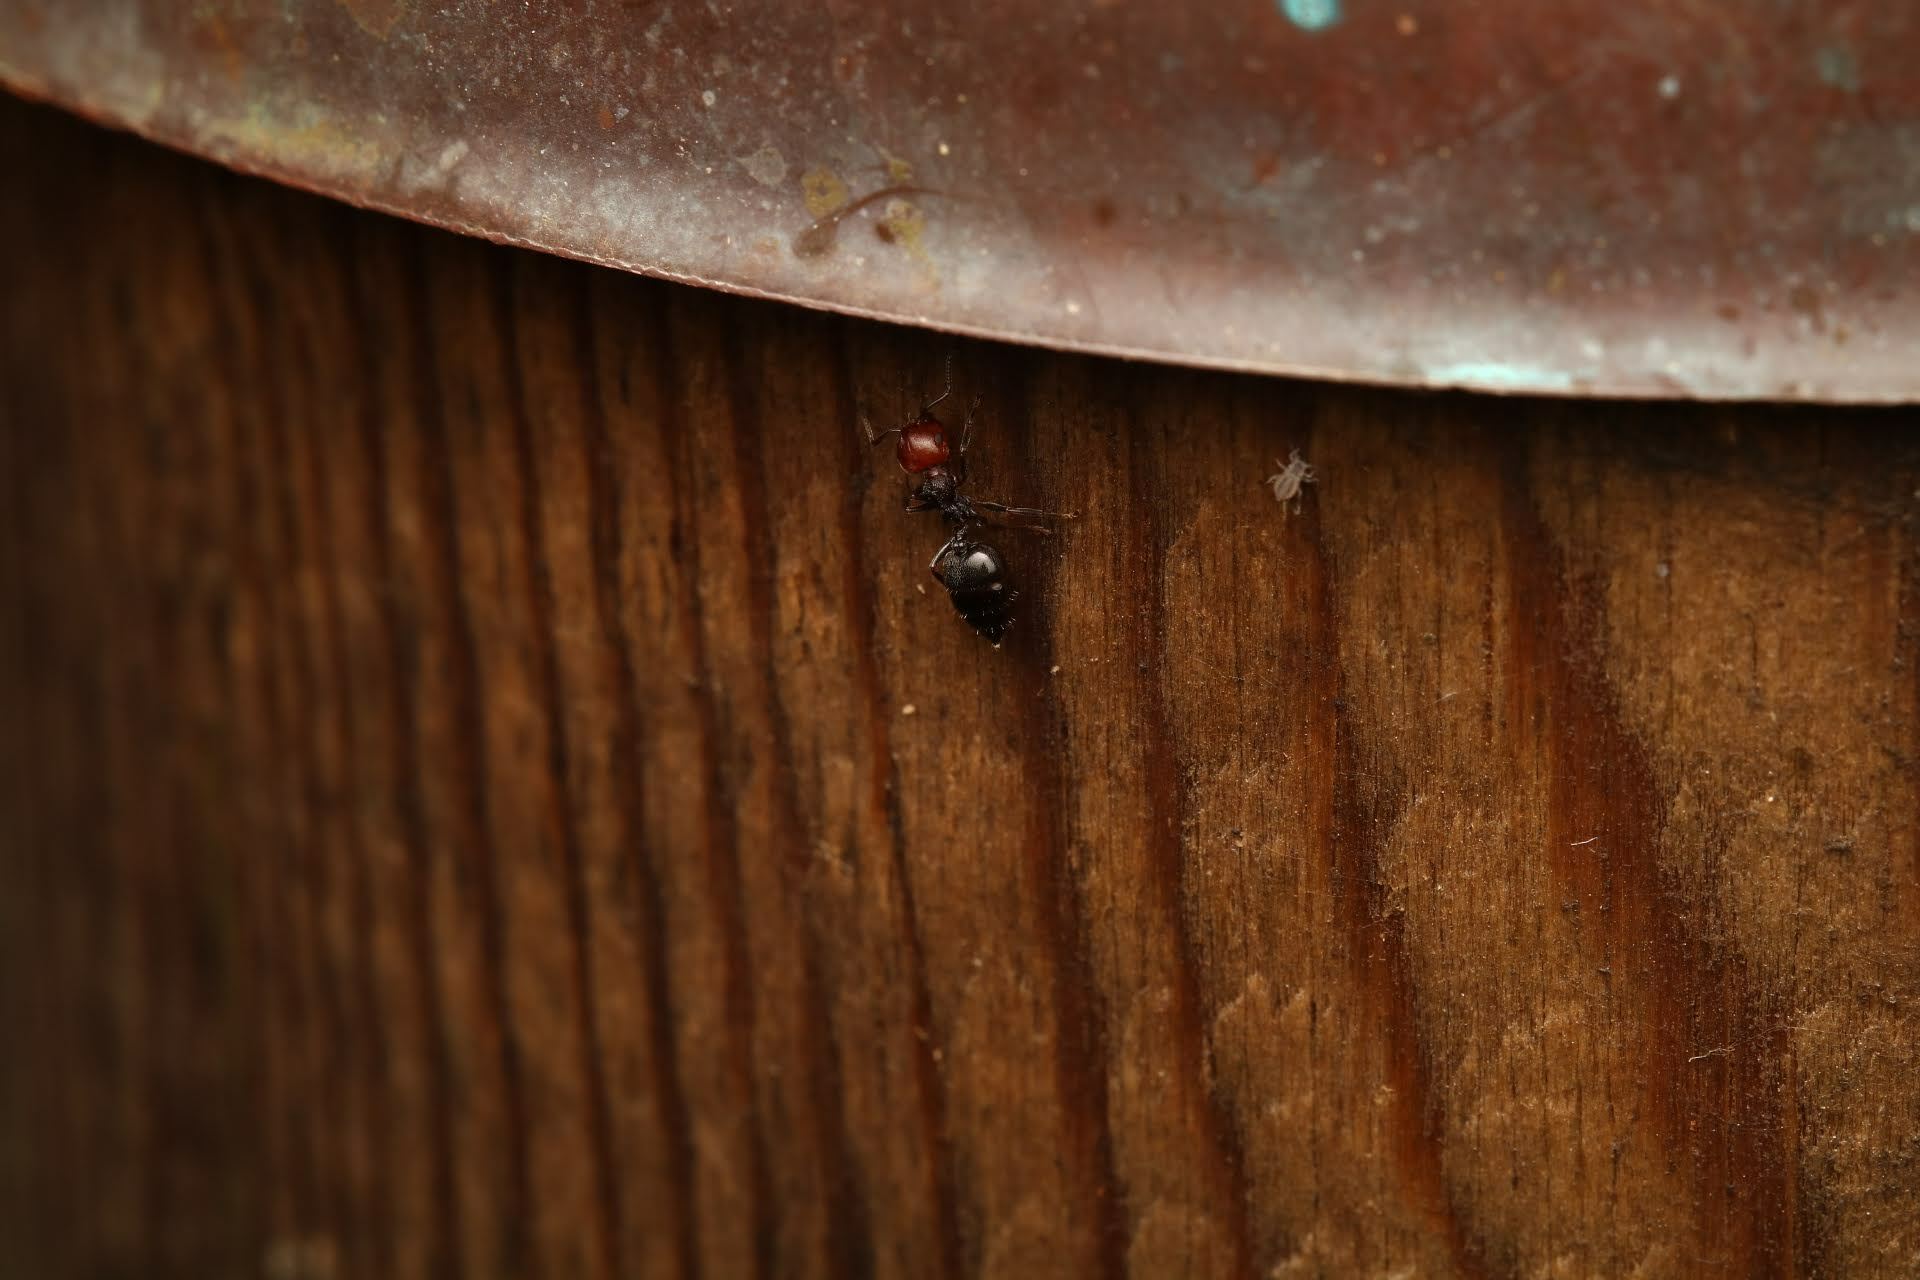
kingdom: Animalia
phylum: Arthropoda
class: Insecta
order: Hymenoptera
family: Formicidae
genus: Crematogaster
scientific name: Crematogaster scutellaris
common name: Fourmi du liège
